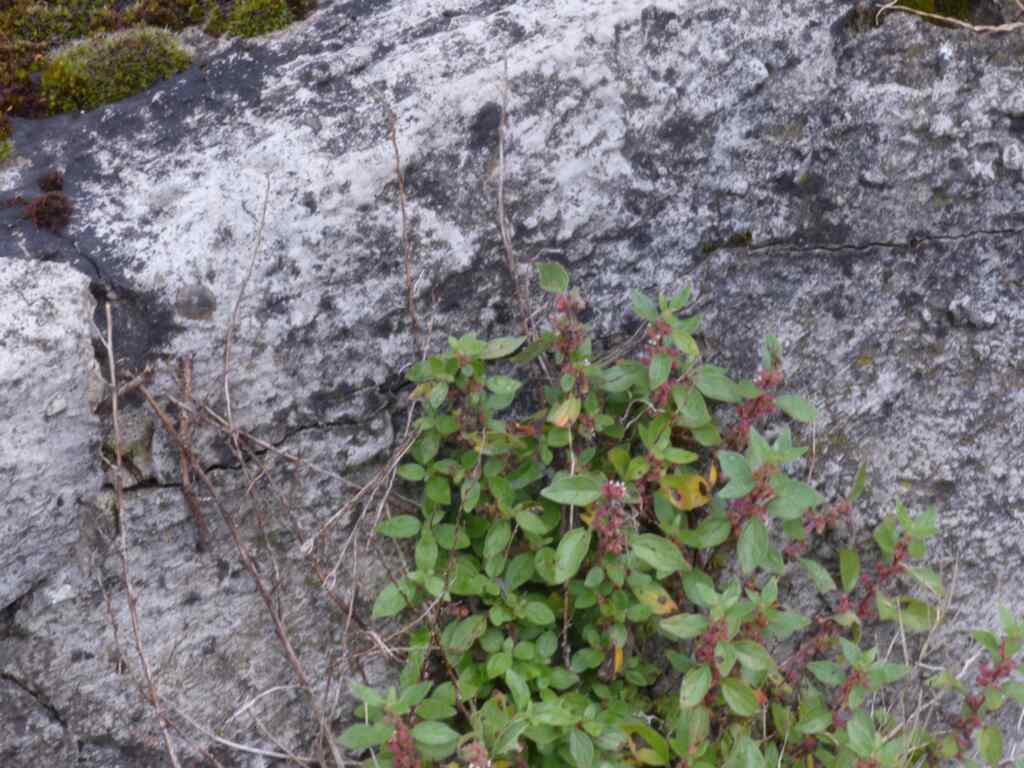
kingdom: Plantae
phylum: Tracheophyta
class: Magnoliopsida
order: Rosales
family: Urticaceae
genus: Parietaria
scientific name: Parietaria judaica
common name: Pellitory-of-the-wall
